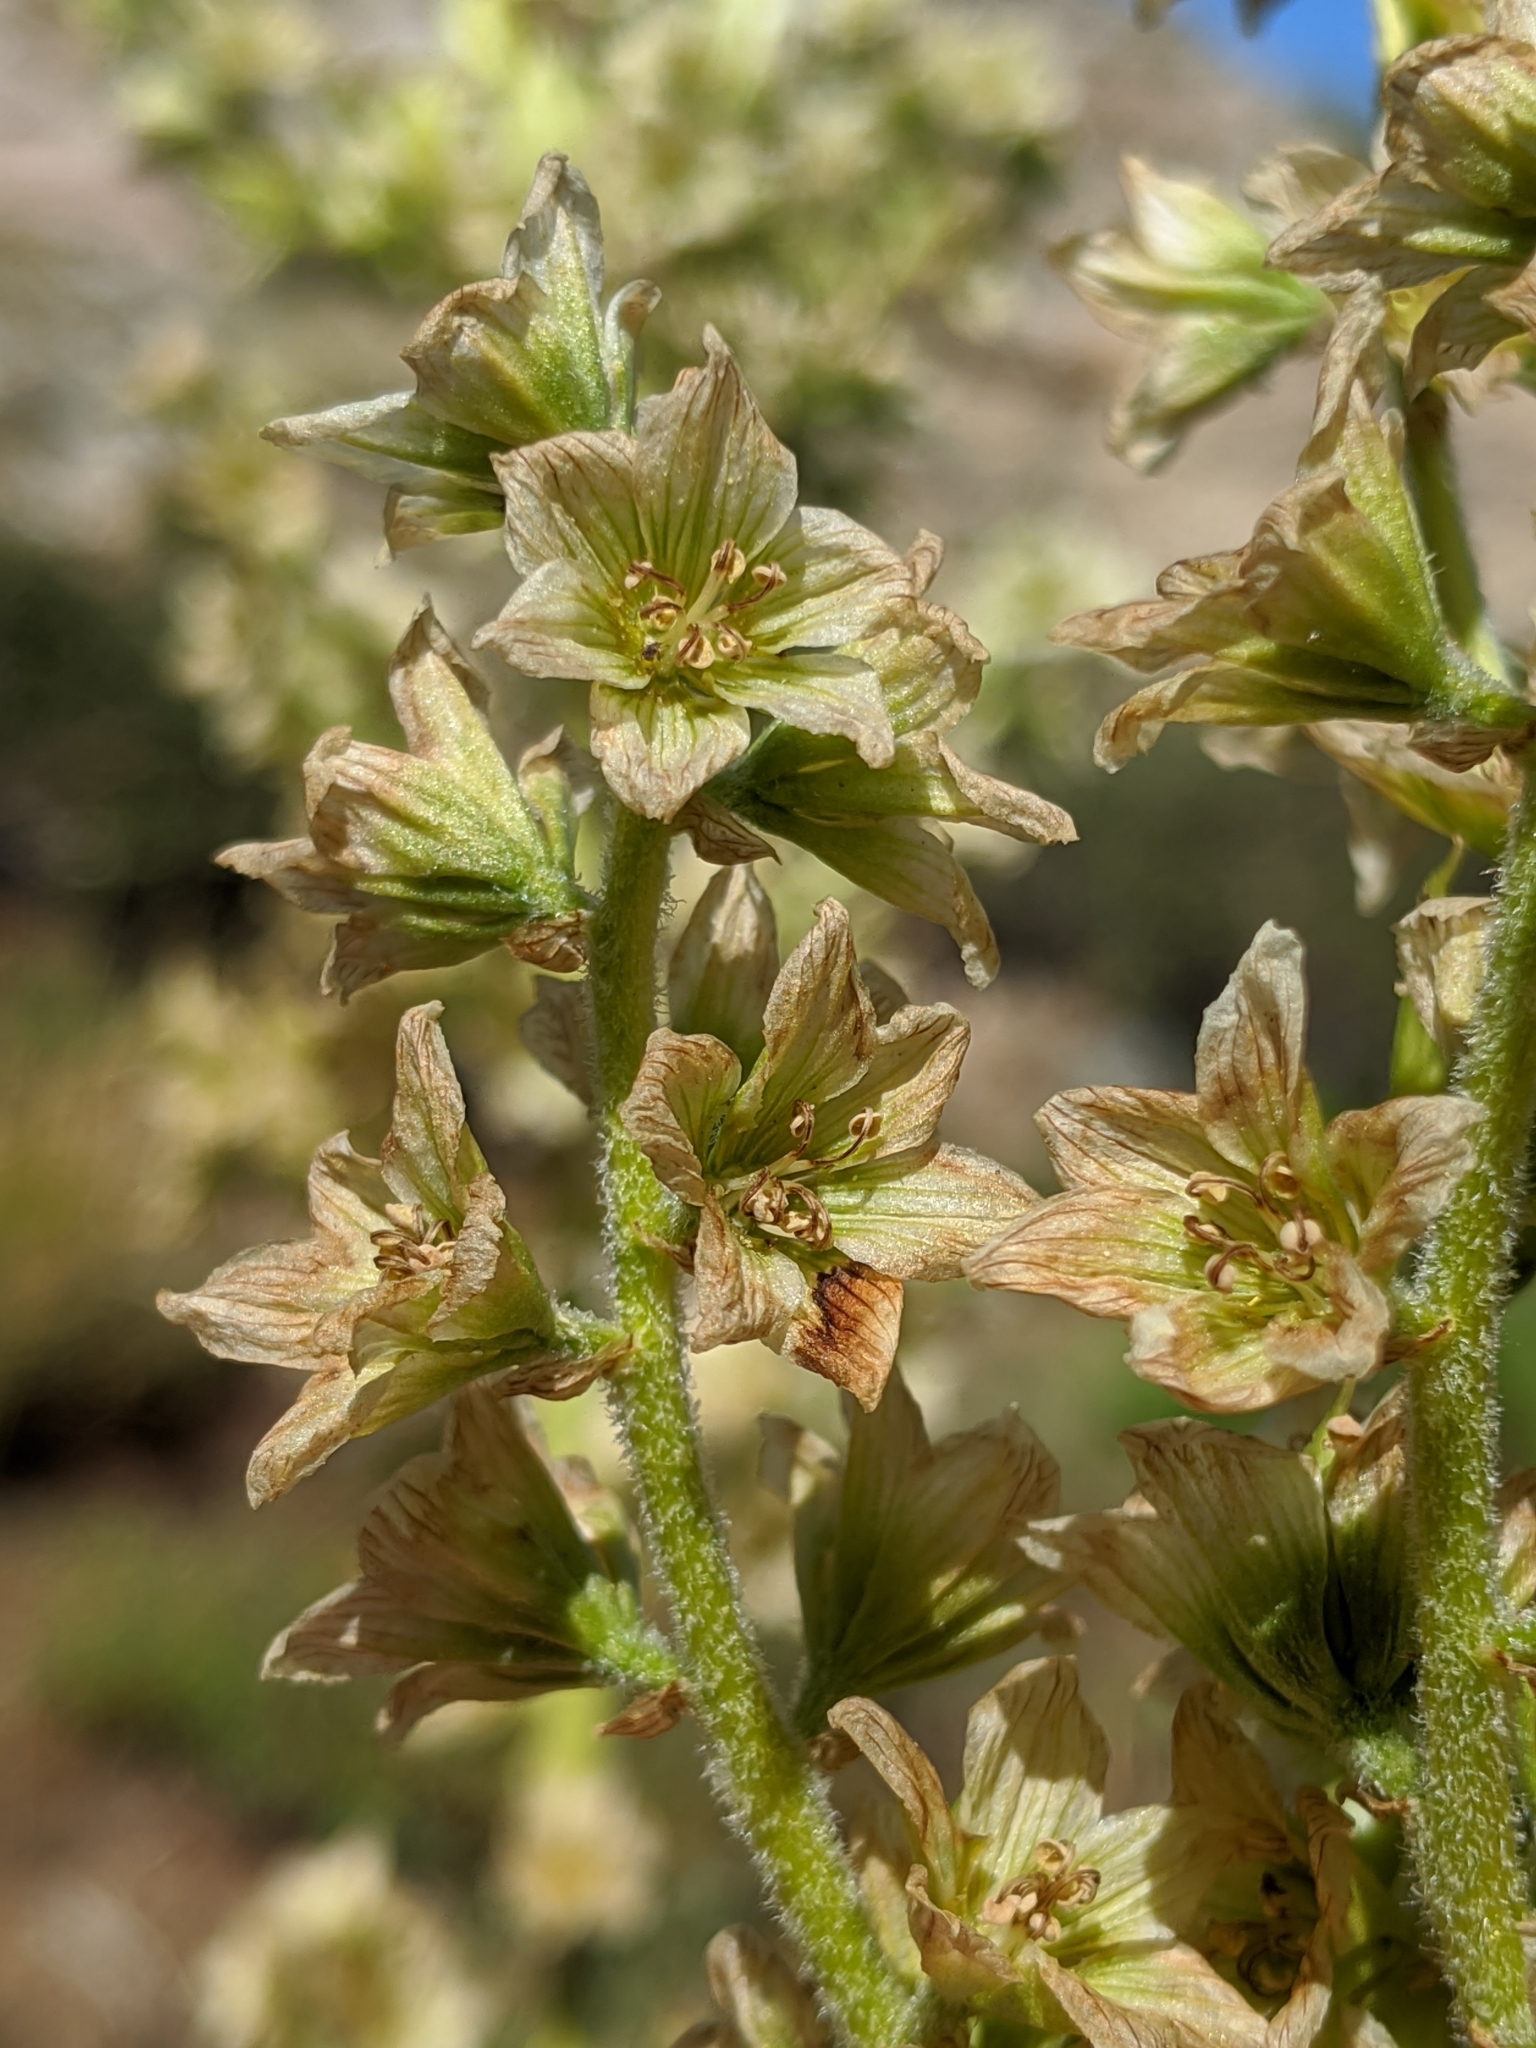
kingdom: Plantae
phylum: Tracheophyta
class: Liliopsida
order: Liliales
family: Melanthiaceae
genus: Veratrum
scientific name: Veratrum californicum
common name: California veratrum
